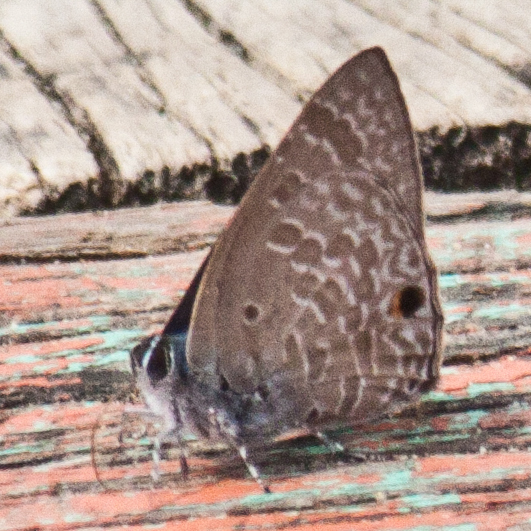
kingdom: Animalia
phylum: Arthropoda
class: Insecta
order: Lepidoptera
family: Lycaenidae
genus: Anthene
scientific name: Anthene lycaenina
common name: Pointed ciliate blue
